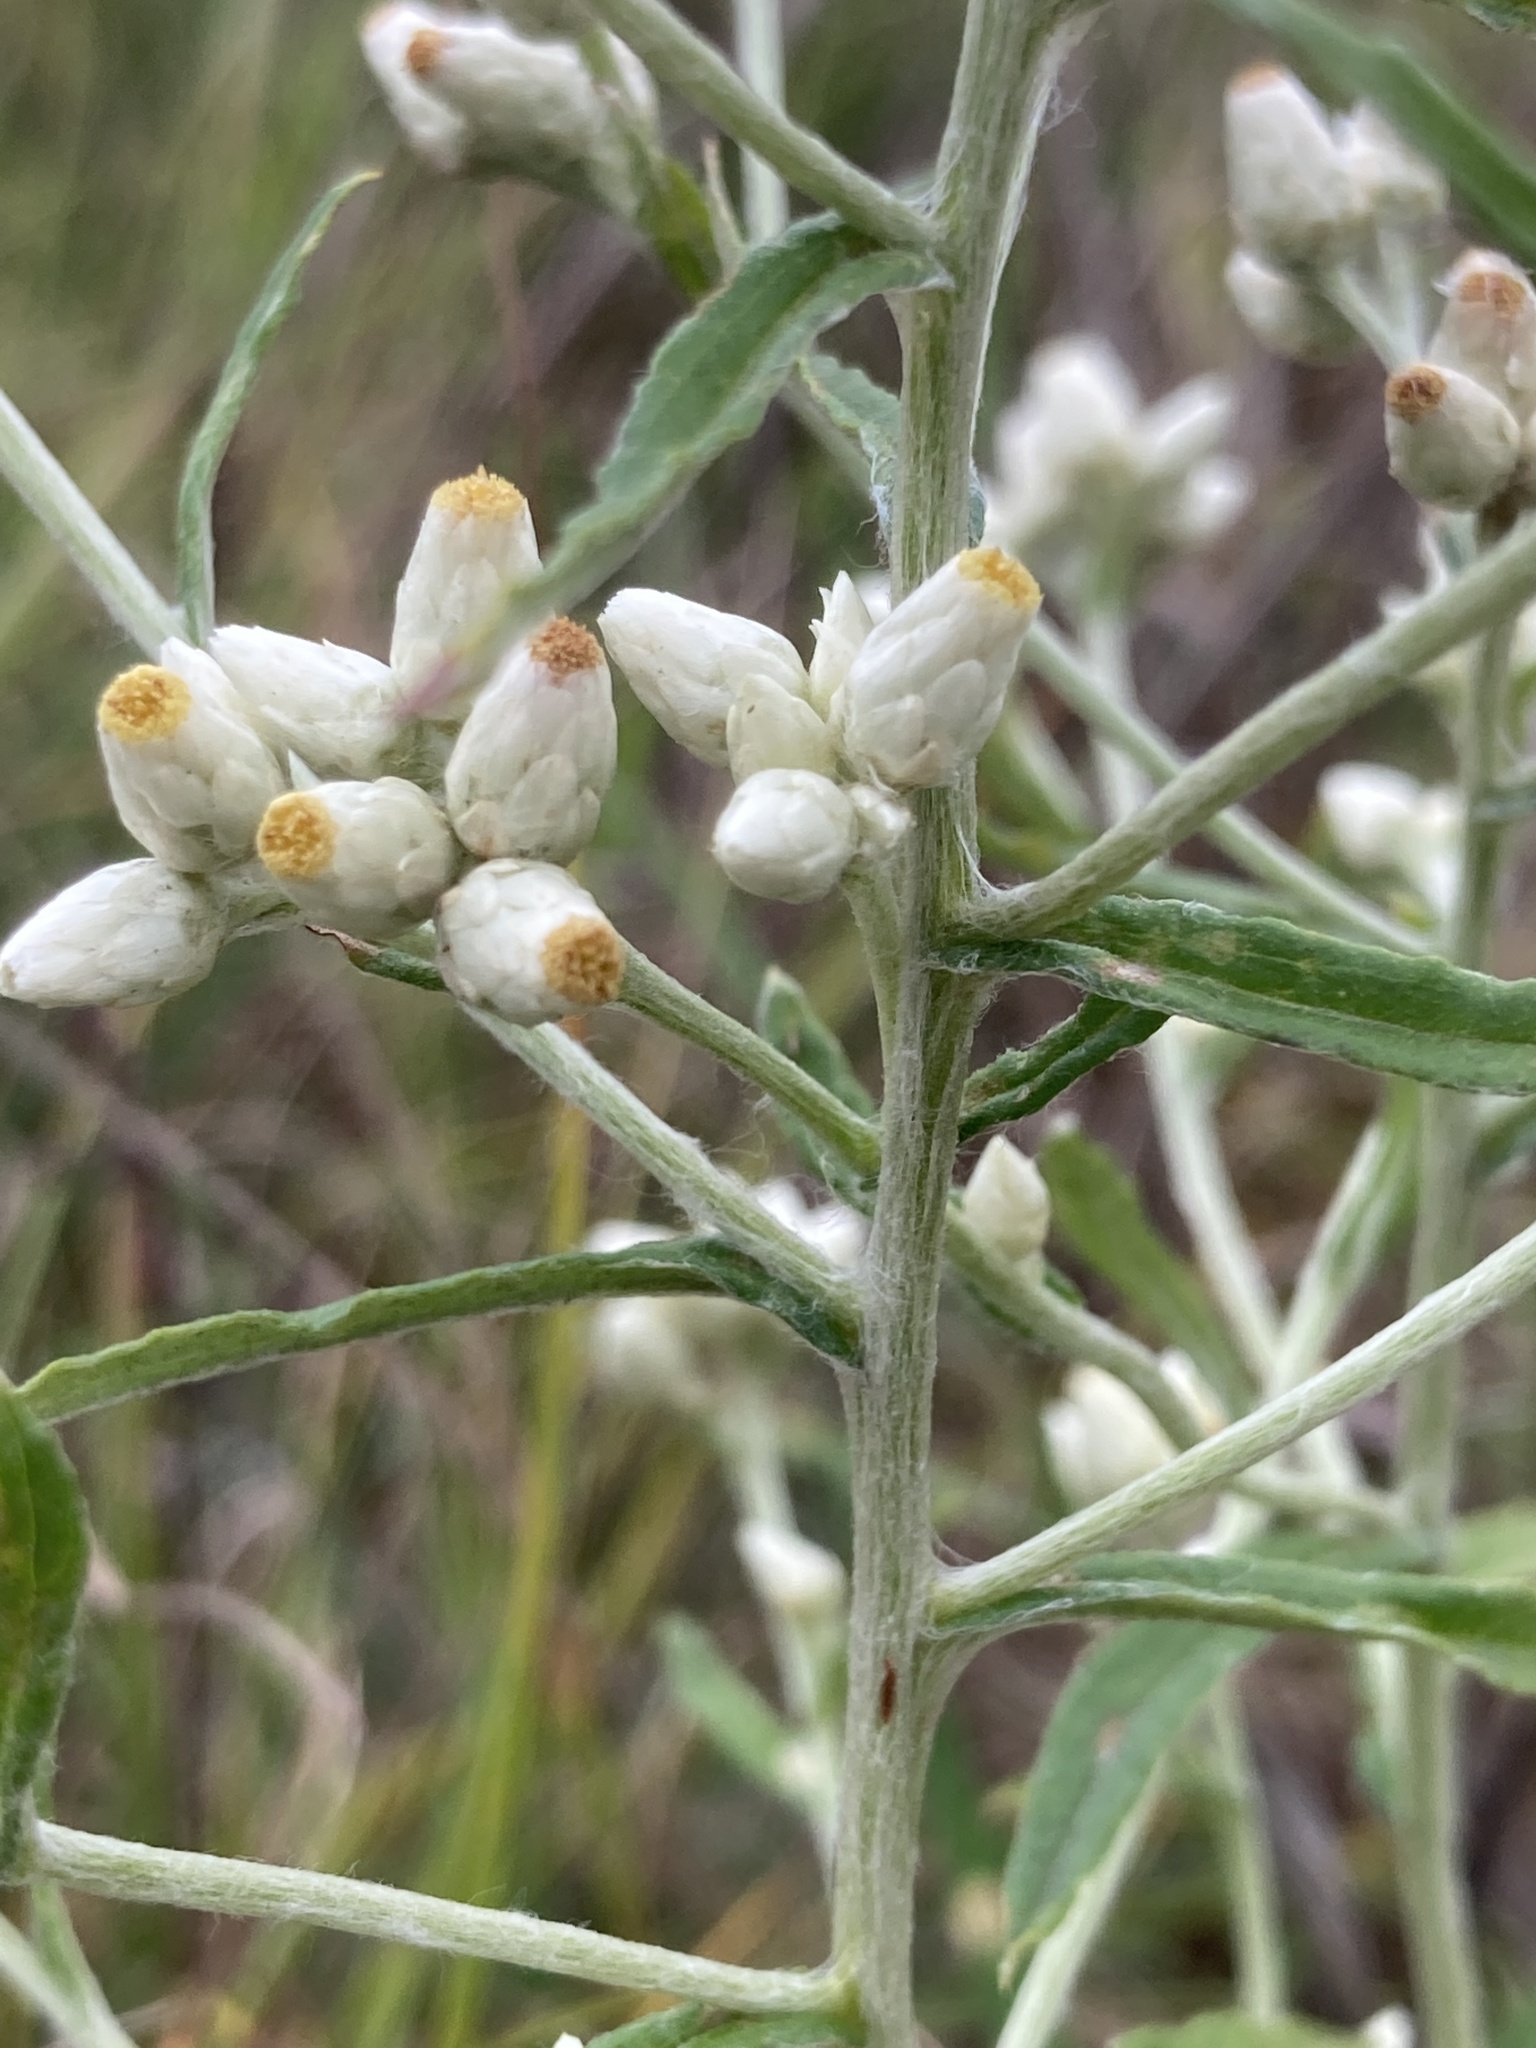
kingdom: Plantae
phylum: Tracheophyta
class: Magnoliopsida
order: Asterales
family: Asteraceae
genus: Pseudognaphalium
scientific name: Pseudognaphalium obtusifolium
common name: Eastern rabbit-tobacco
